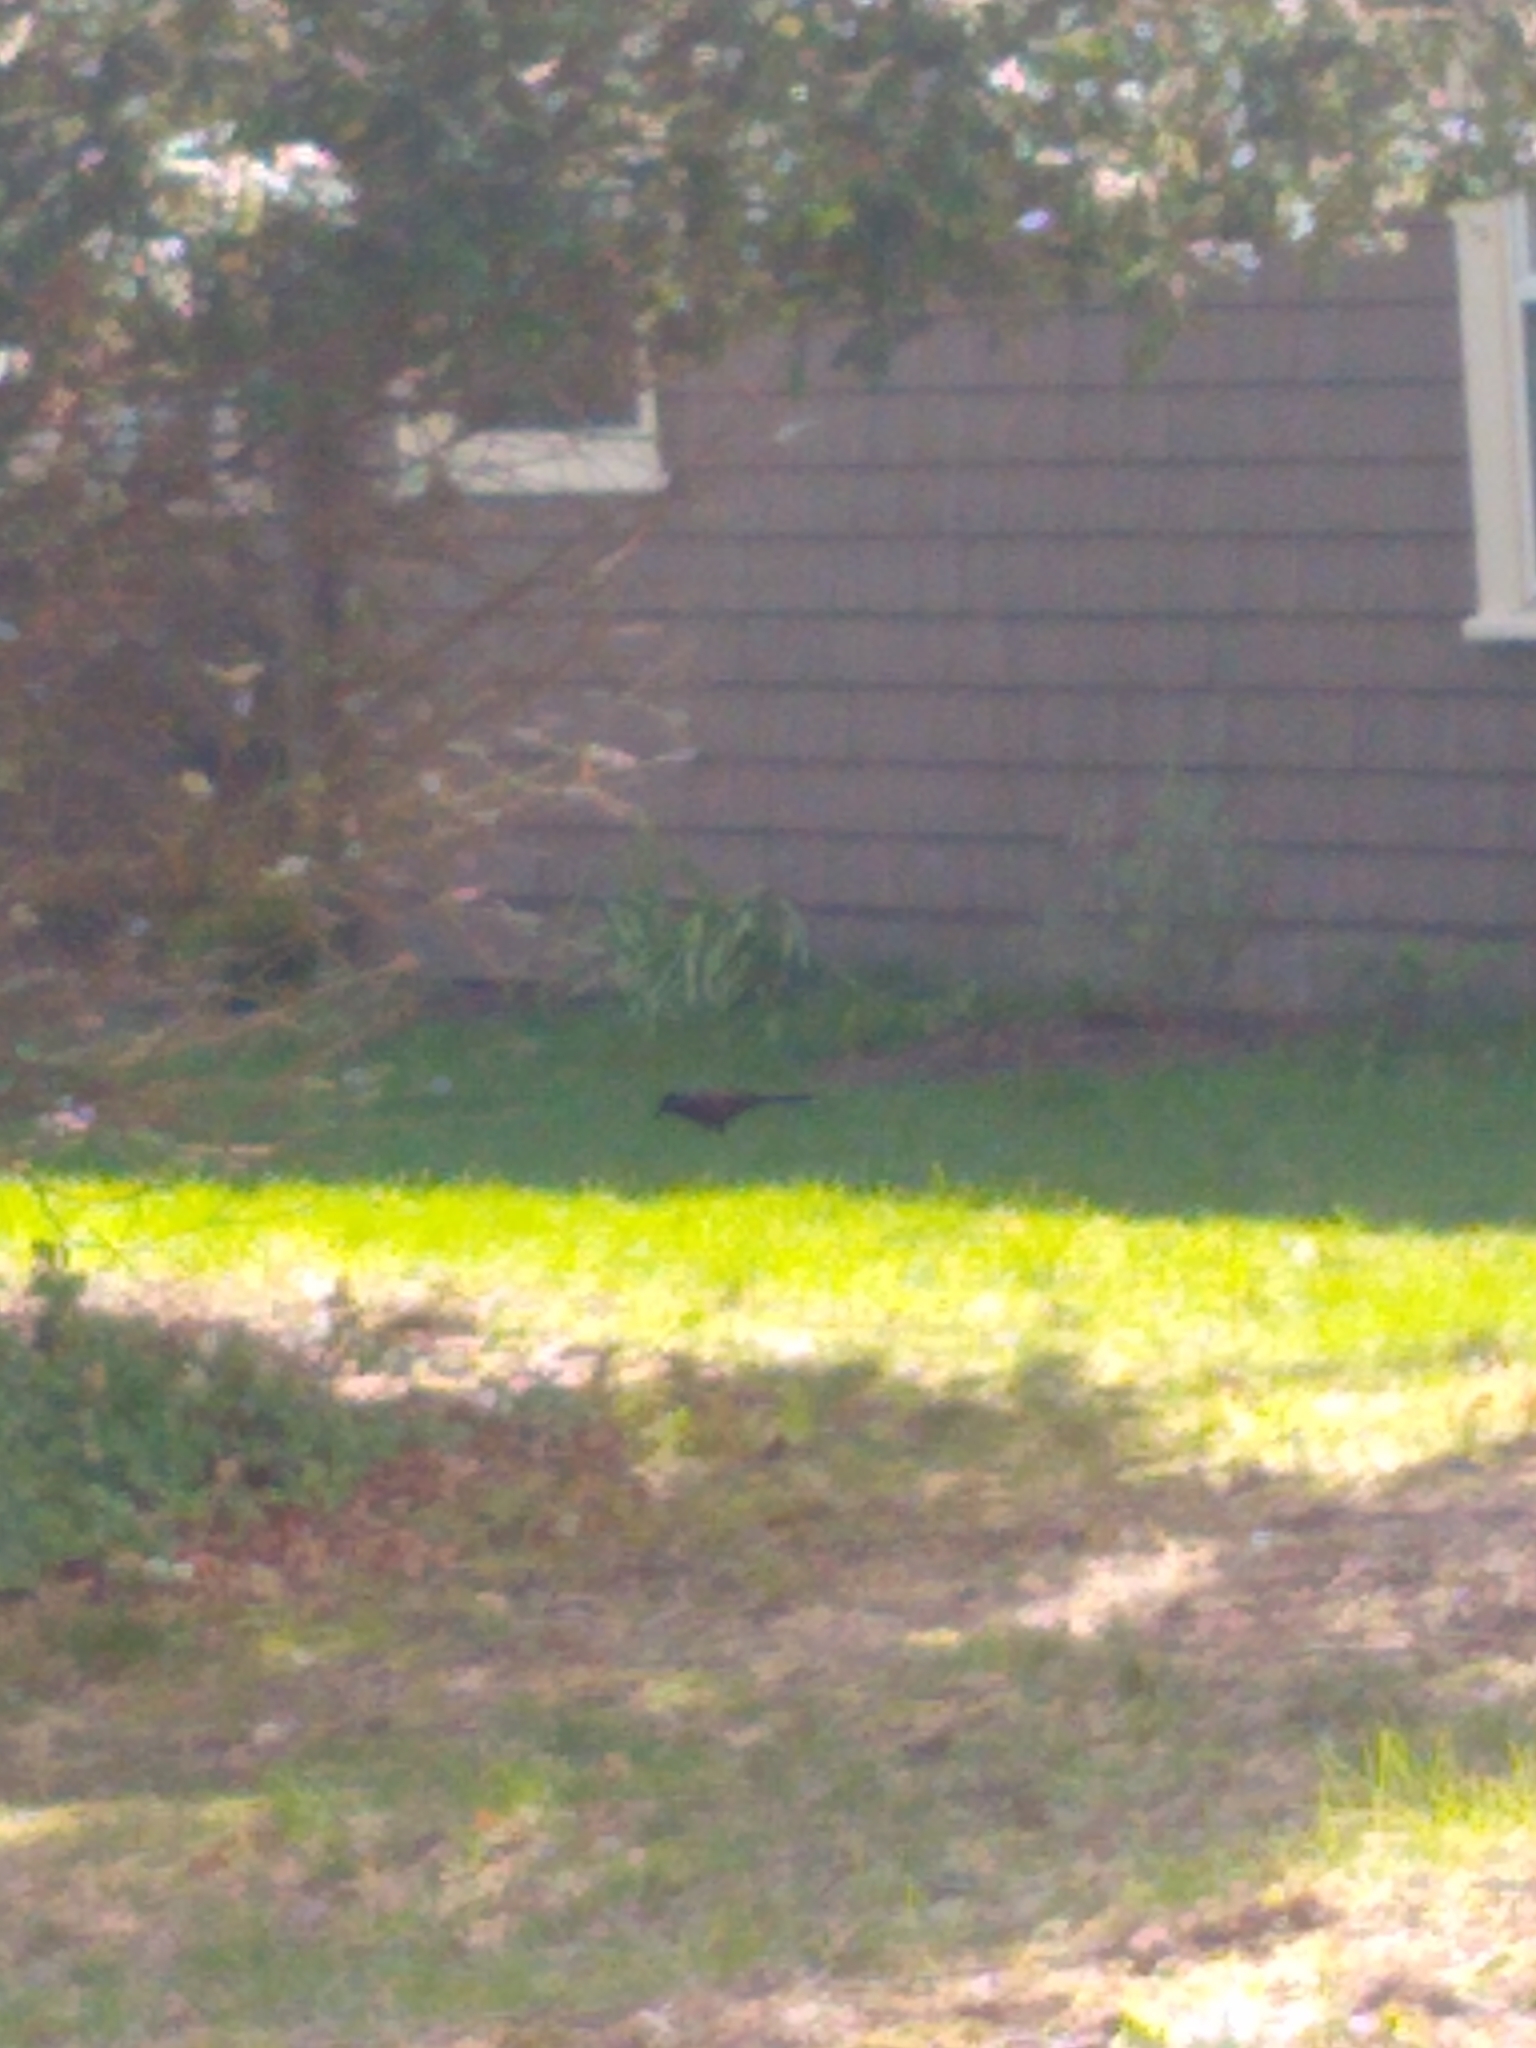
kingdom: Animalia
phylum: Chordata
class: Aves
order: Passeriformes
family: Icteridae
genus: Quiscalus
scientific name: Quiscalus quiscula
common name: Common grackle
